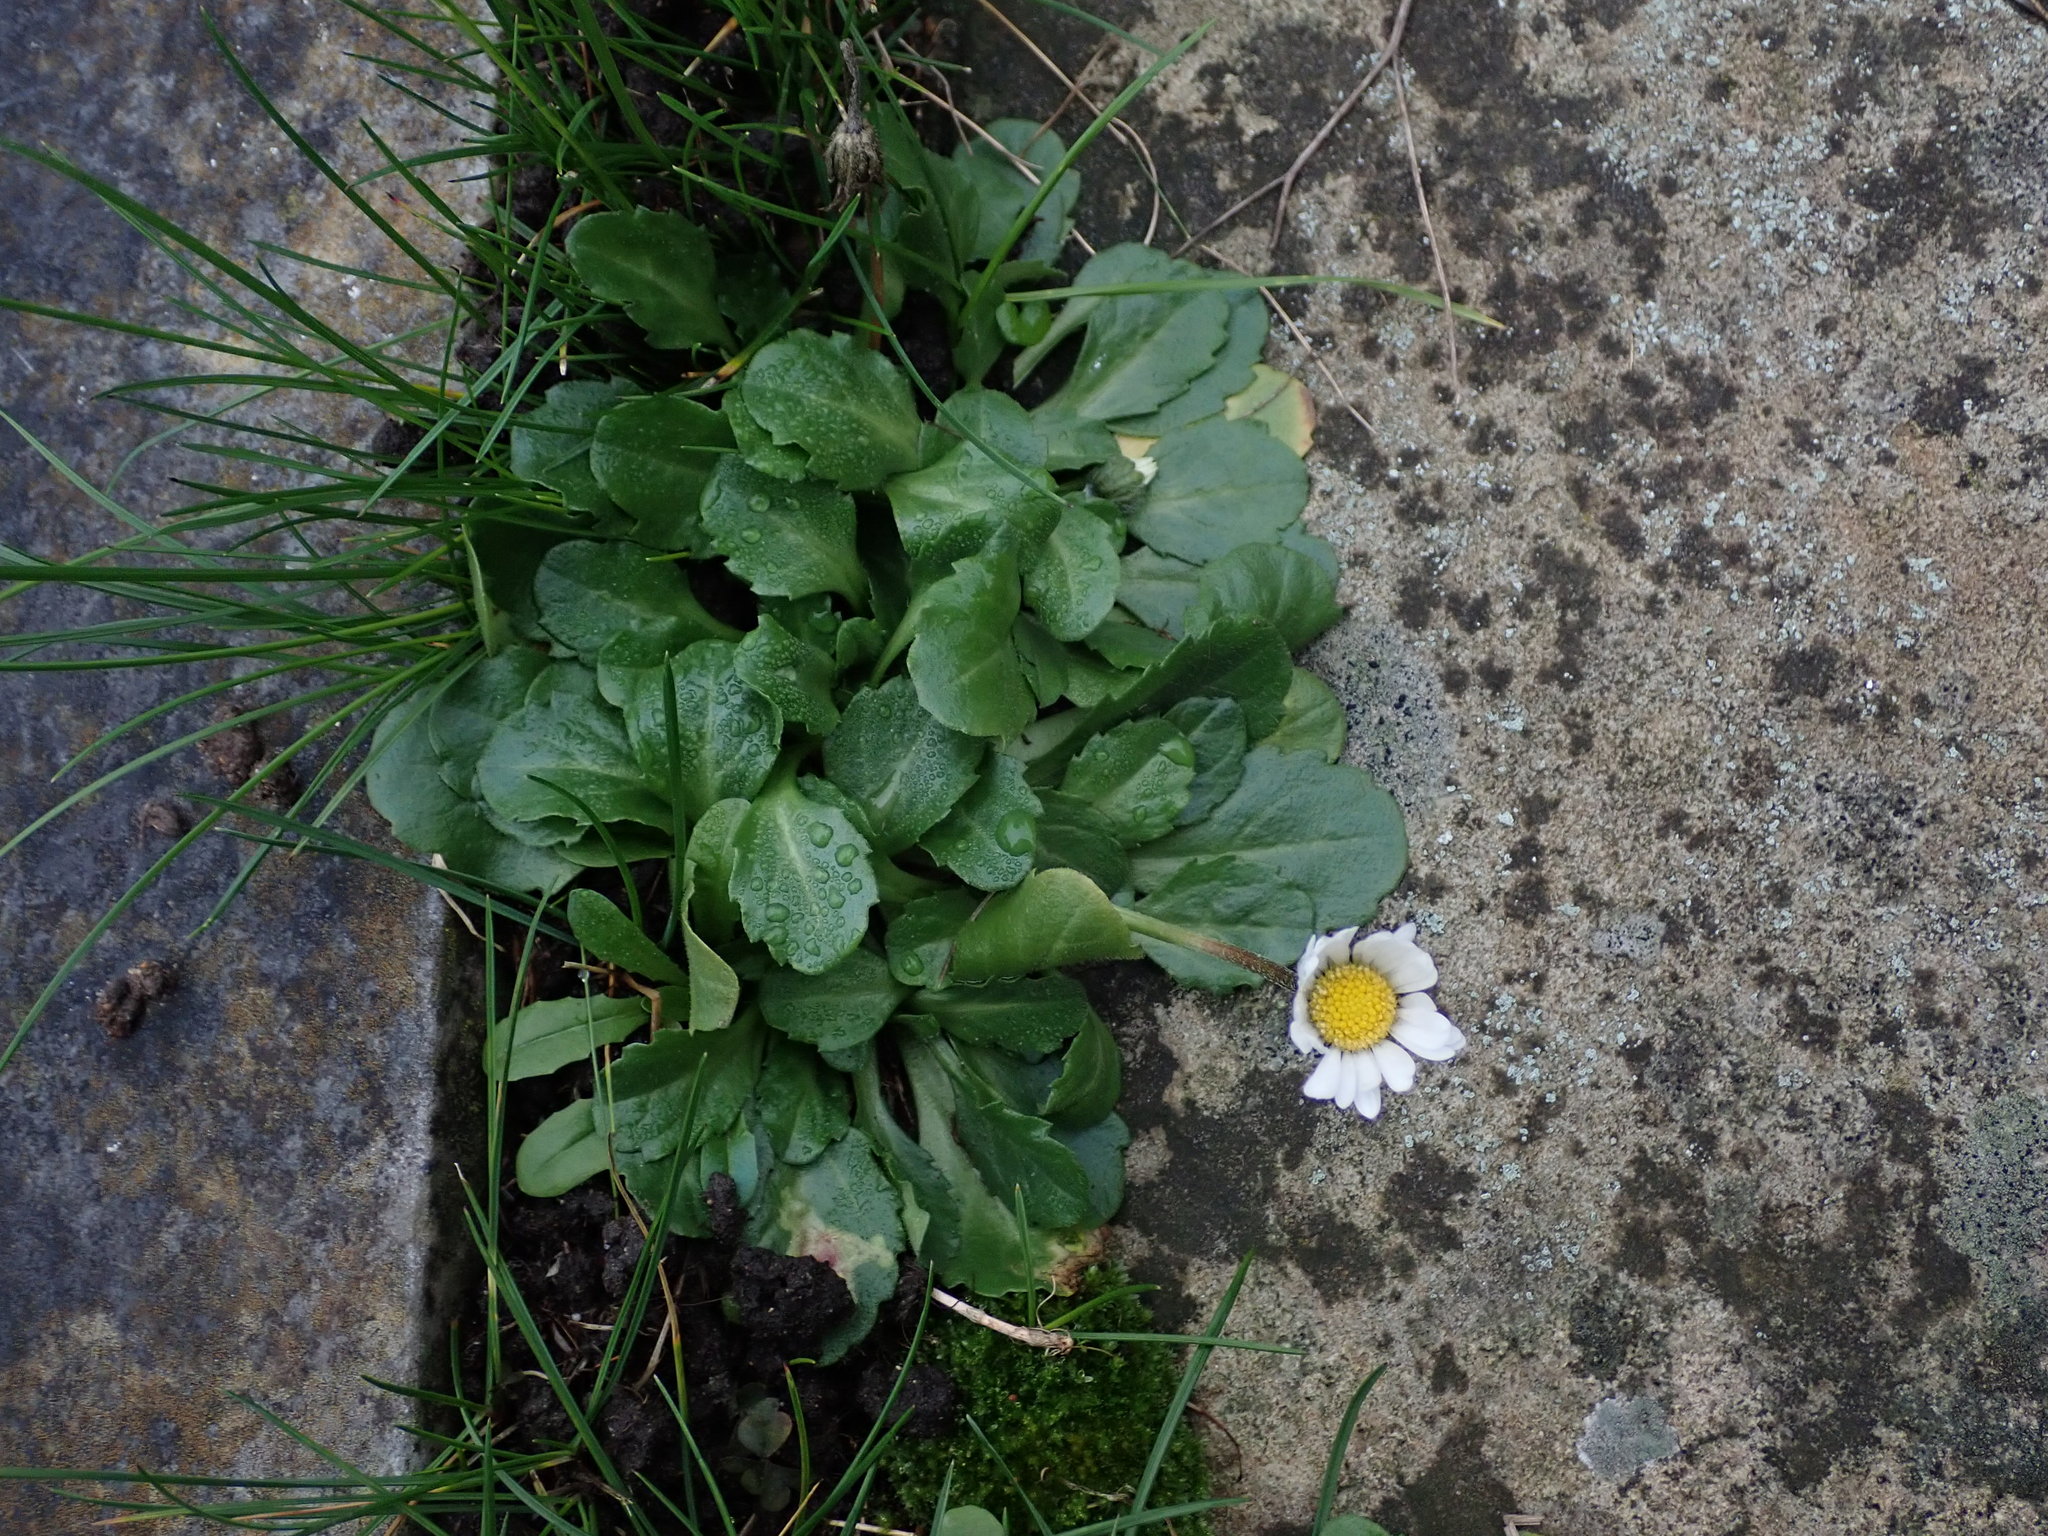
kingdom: Plantae
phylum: Tracheophyta
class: Magnoliopsida
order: Asterales
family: Asteraceae
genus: Bellis
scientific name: Bellis perennis
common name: Lawndaisy
